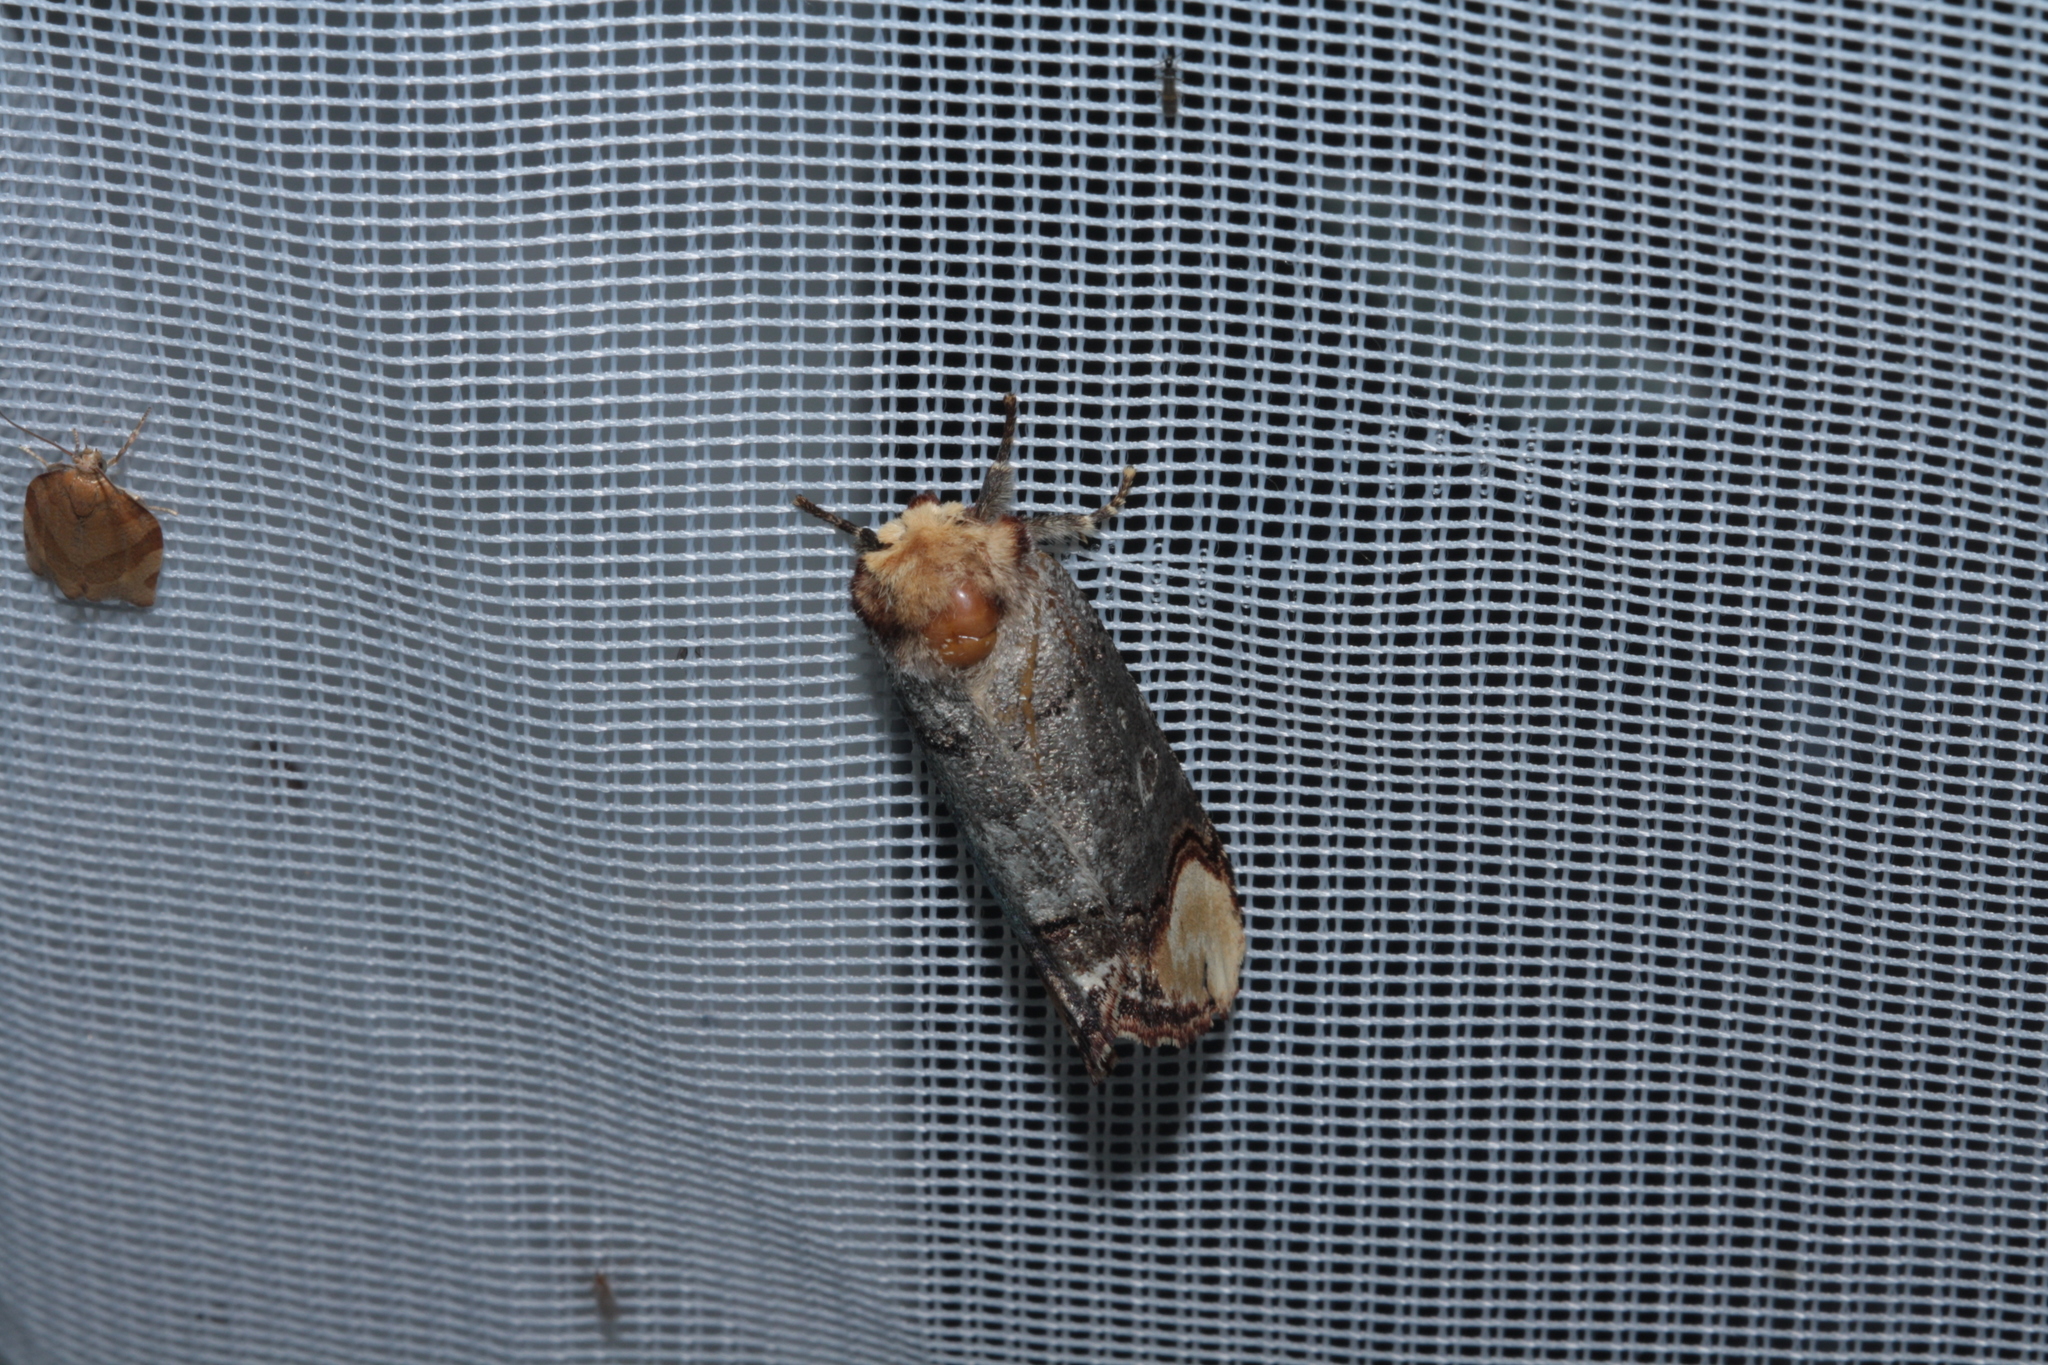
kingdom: Animalia
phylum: Arthropoda
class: Insecta
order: Lepidoptera
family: Notodontidae
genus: Phalera
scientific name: Phalera bucephala
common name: Buff-tip
